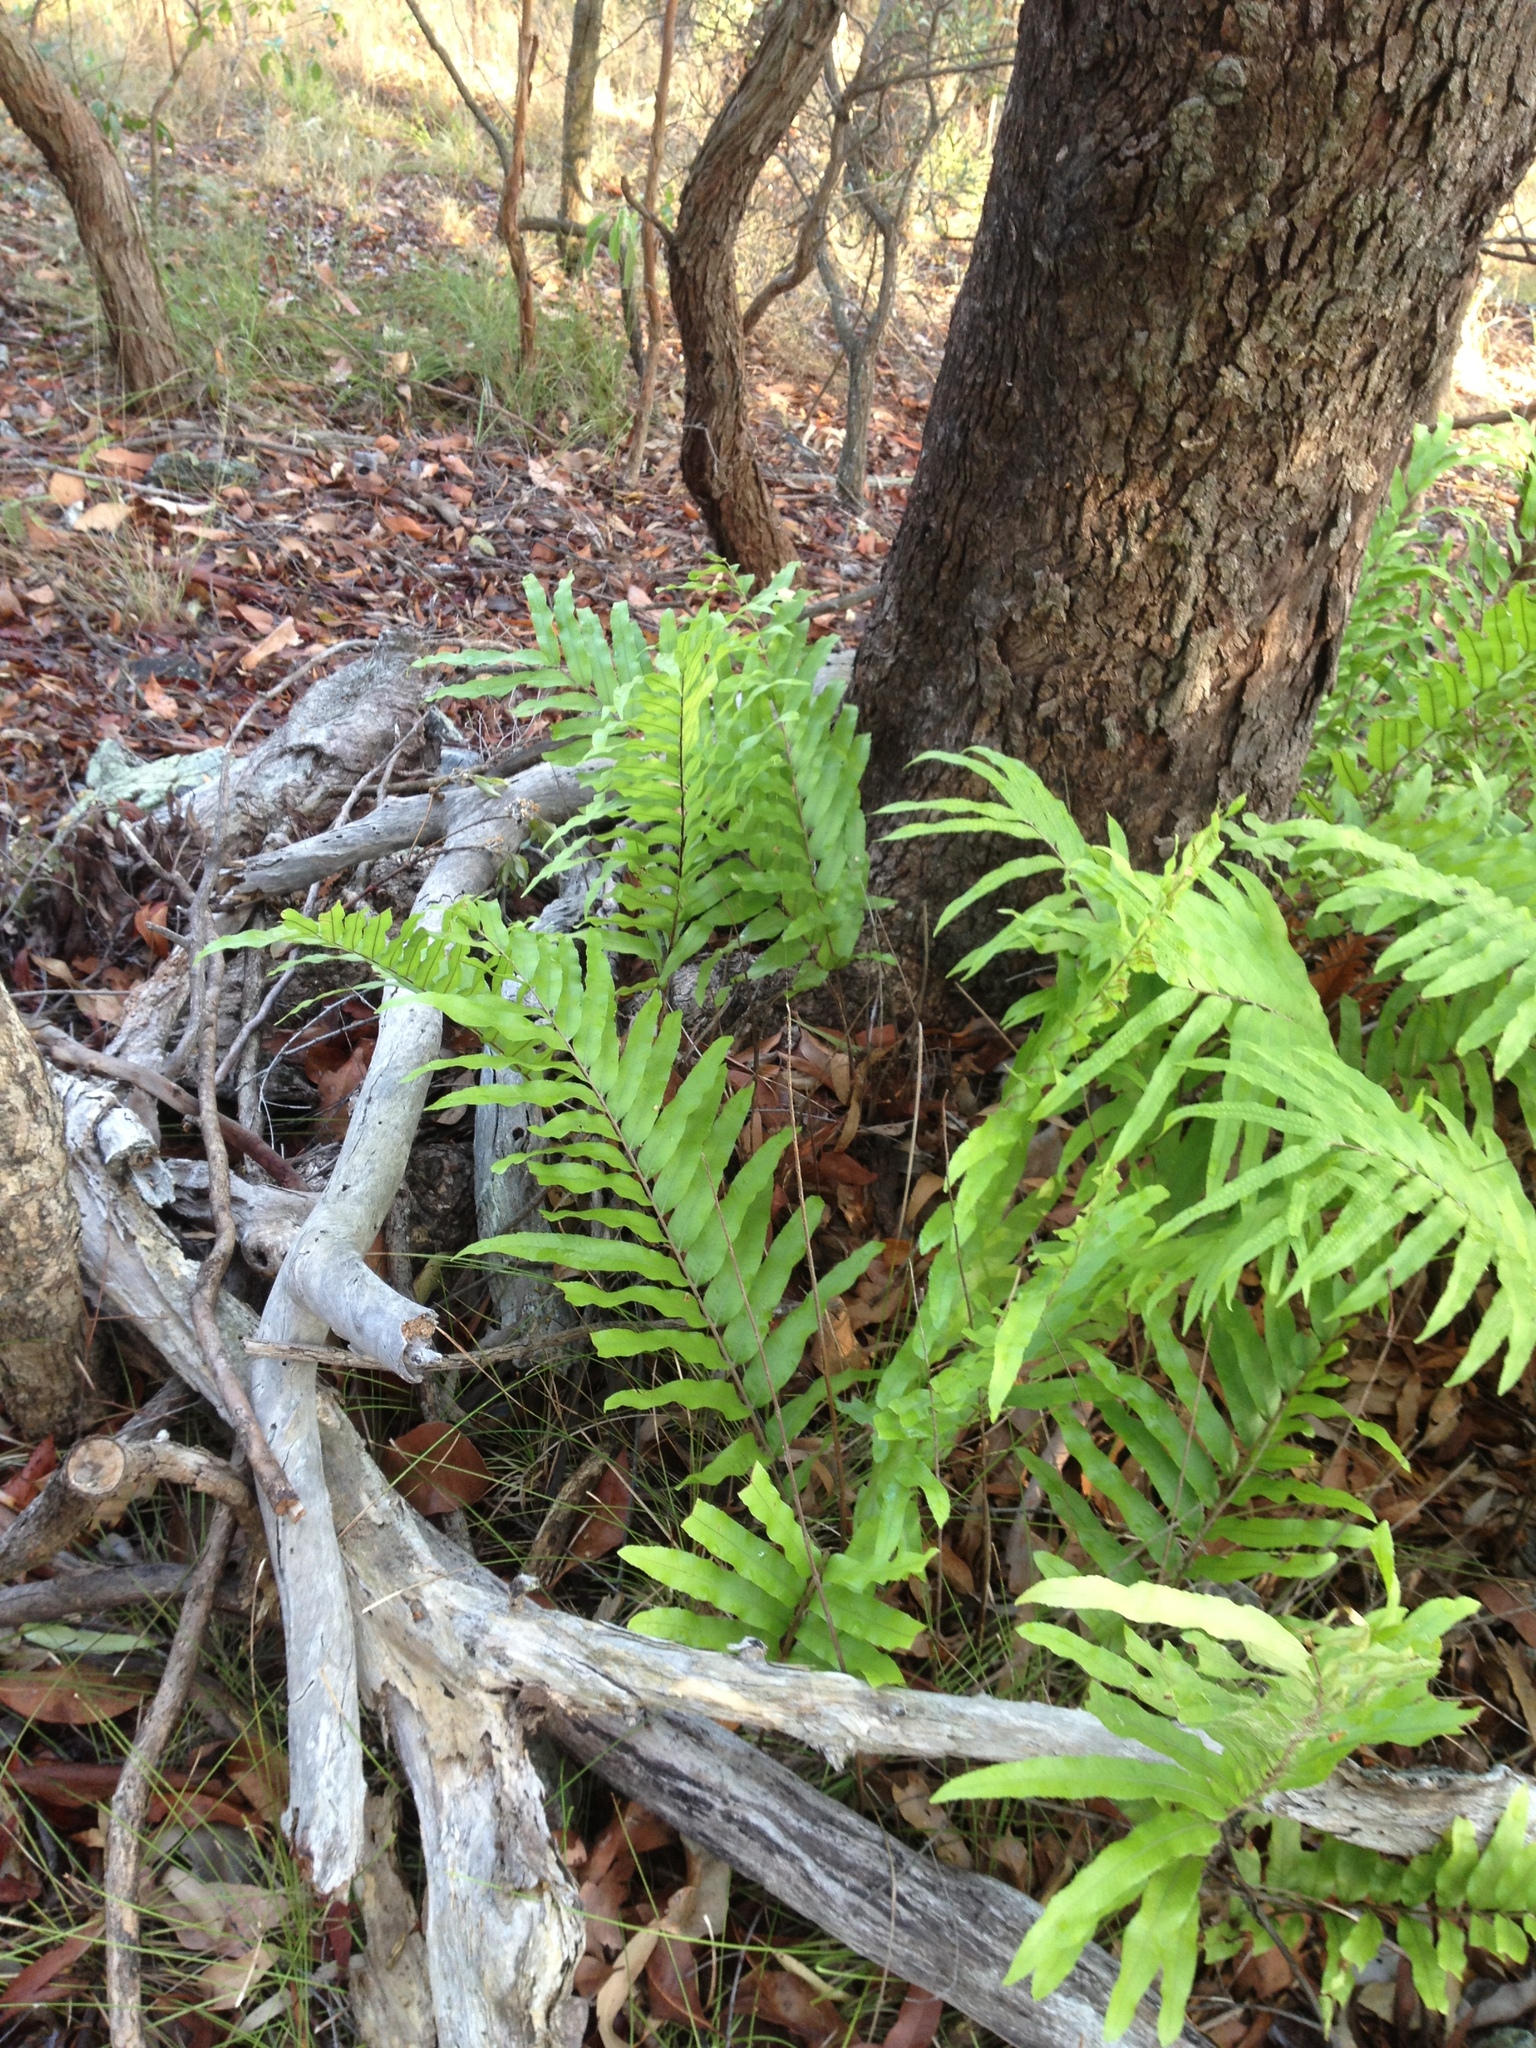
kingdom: Plantae
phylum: Tracheophyta
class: Polypodiopsida
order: Polypodiales
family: Polypodiaceae
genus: Drynaria
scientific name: Drynaria rigidula
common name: Basket fern
